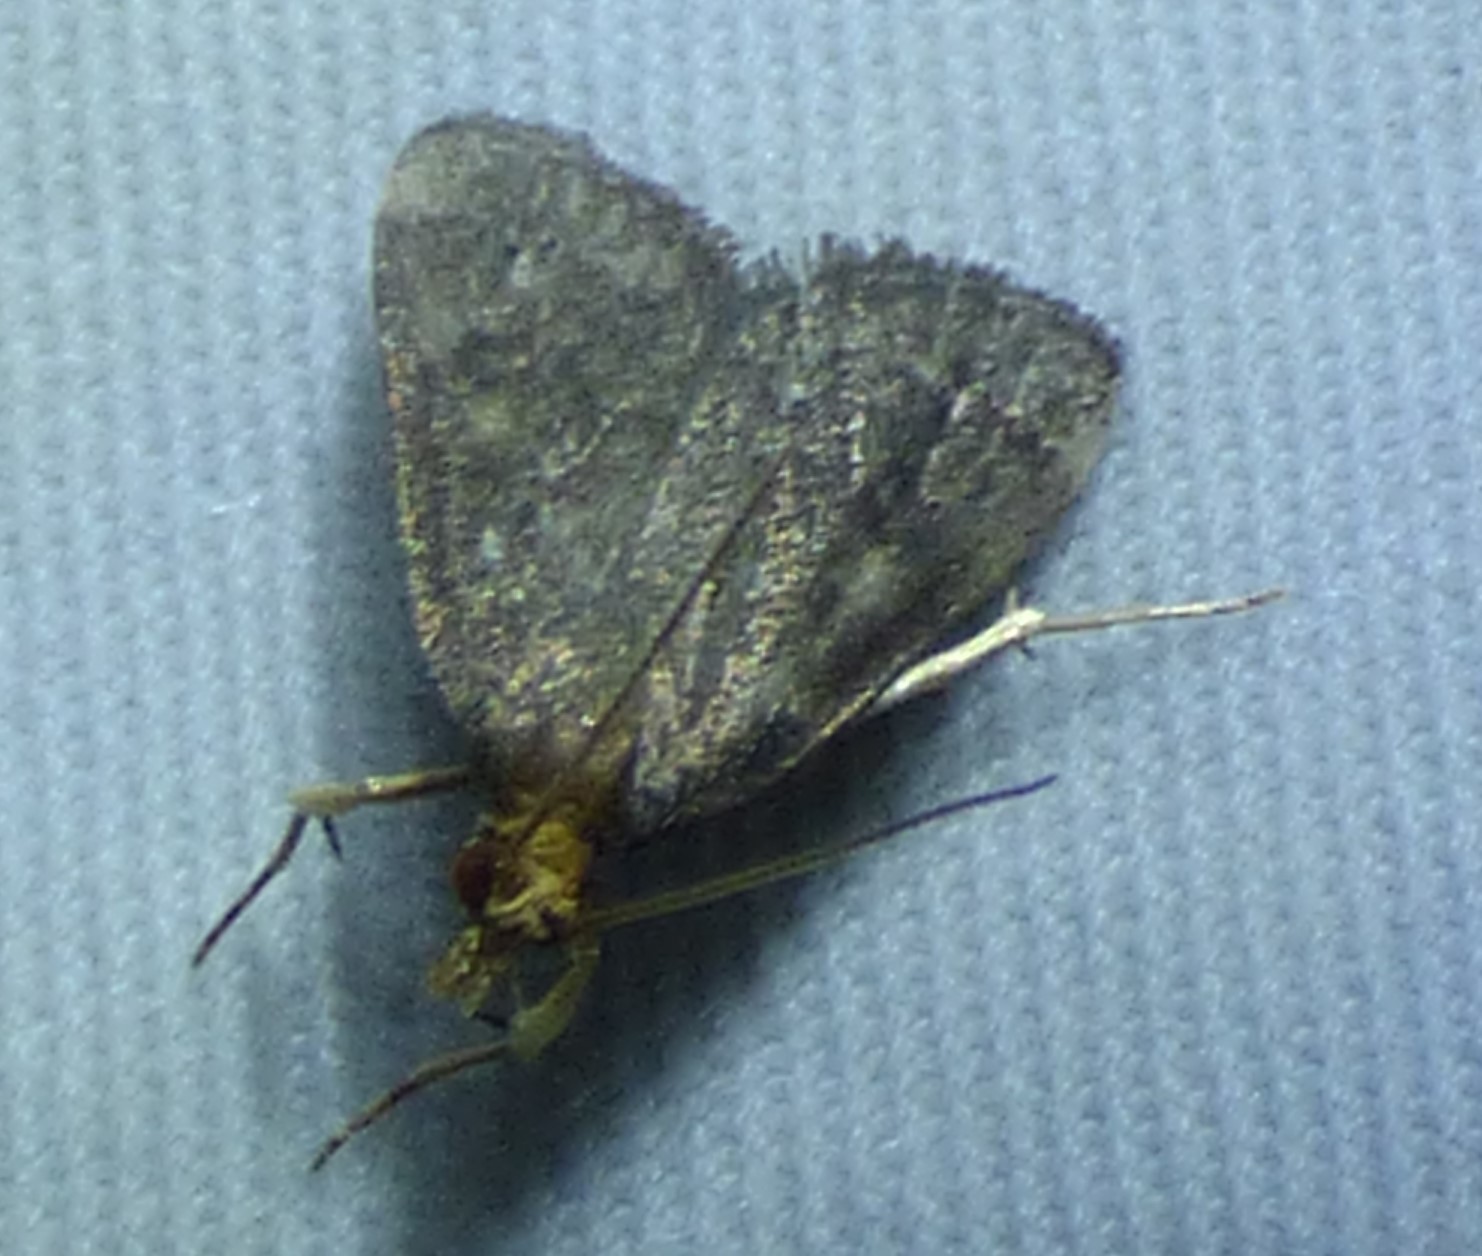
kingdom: Animalia
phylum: Arthropoda
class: Insecta
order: Lepidoptera
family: Crambidae
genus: Pyrausta
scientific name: Pyrausta merrickalis
